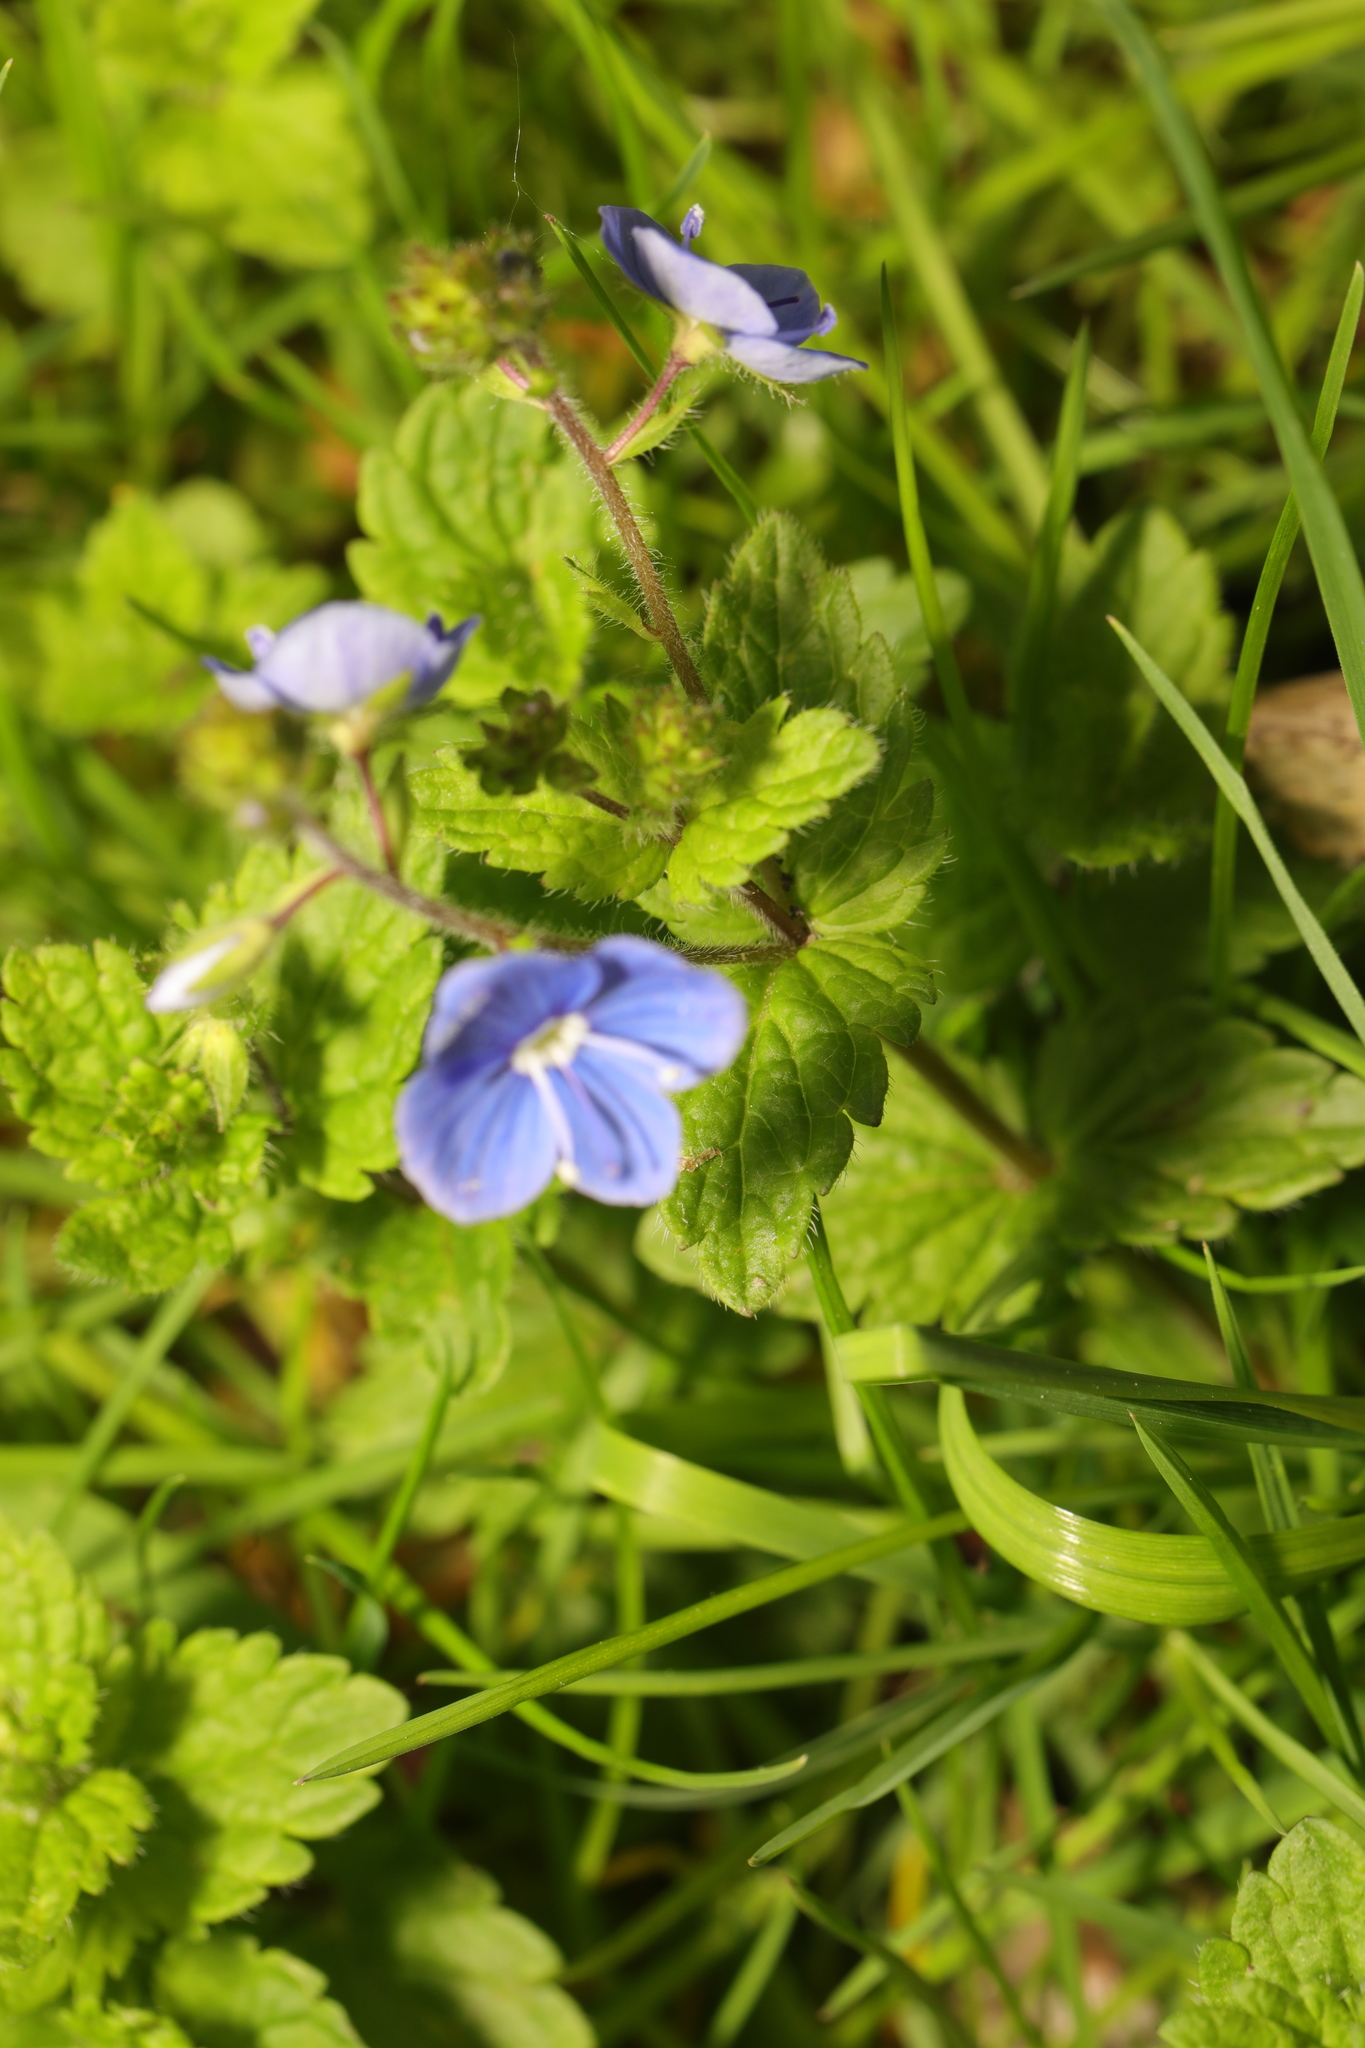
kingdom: Plantae
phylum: Tracheophyta
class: Magnoliopsida
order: Lamiales
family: Plantaginaceae
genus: Veronica
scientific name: Veronica chamaedrys
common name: Germander speedwell
